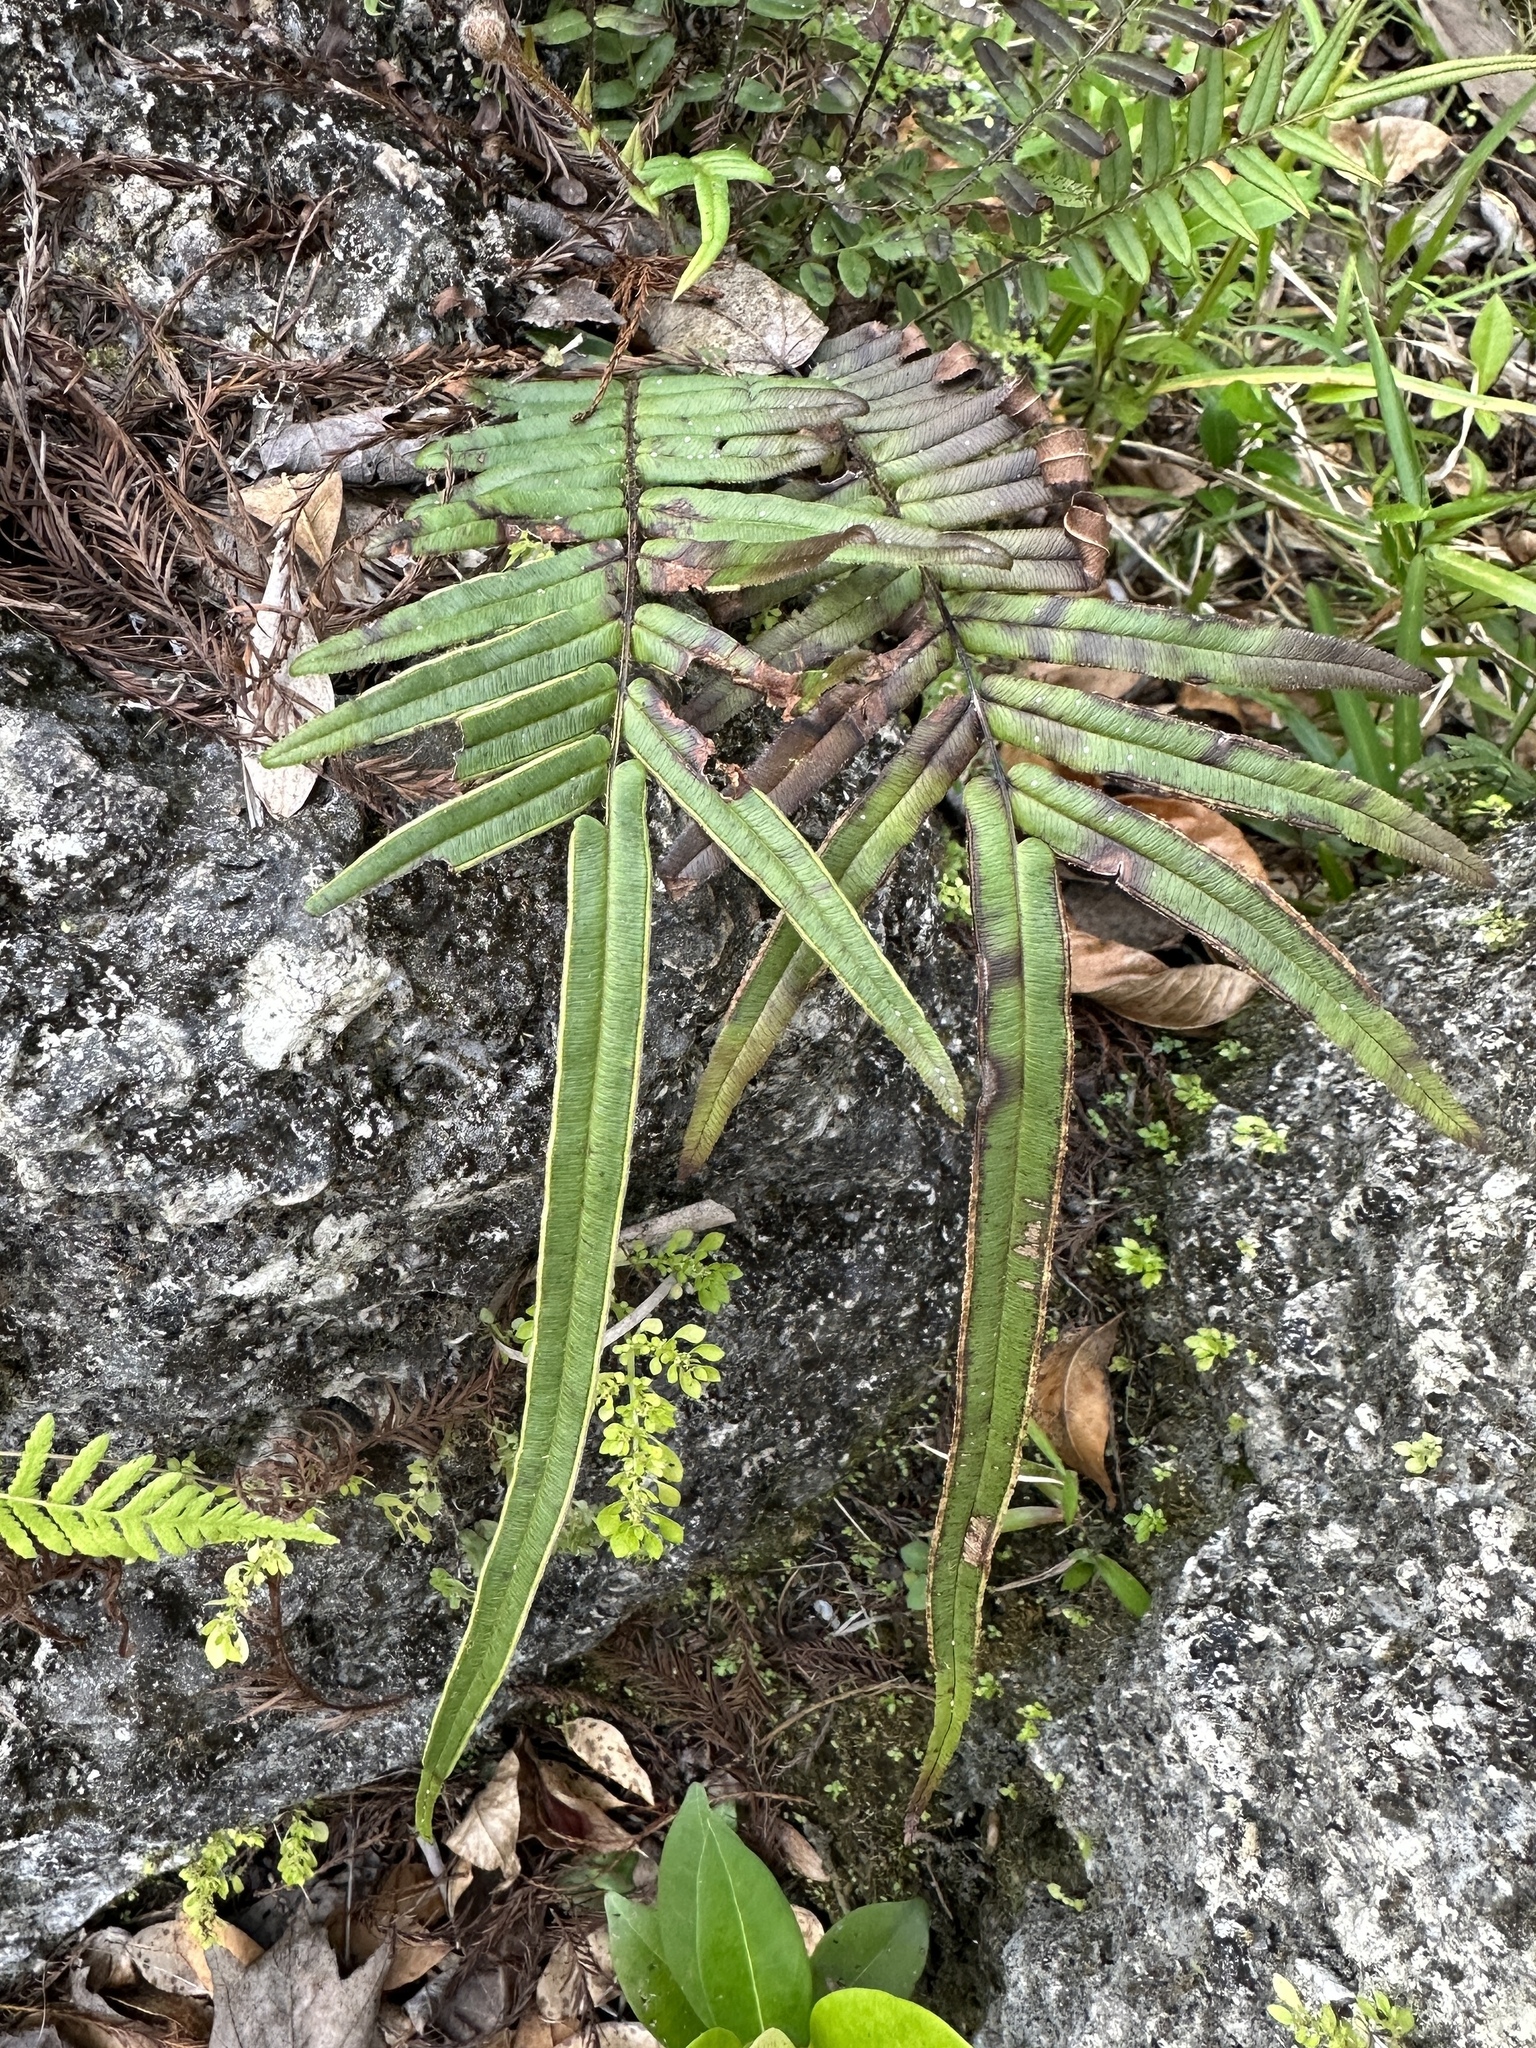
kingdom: Plantae
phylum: Tracheophyta
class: Polypodiopsida
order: Polypodiales
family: Pteridaceae
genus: Pteris
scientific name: Pteris vittata
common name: Ladder brake
